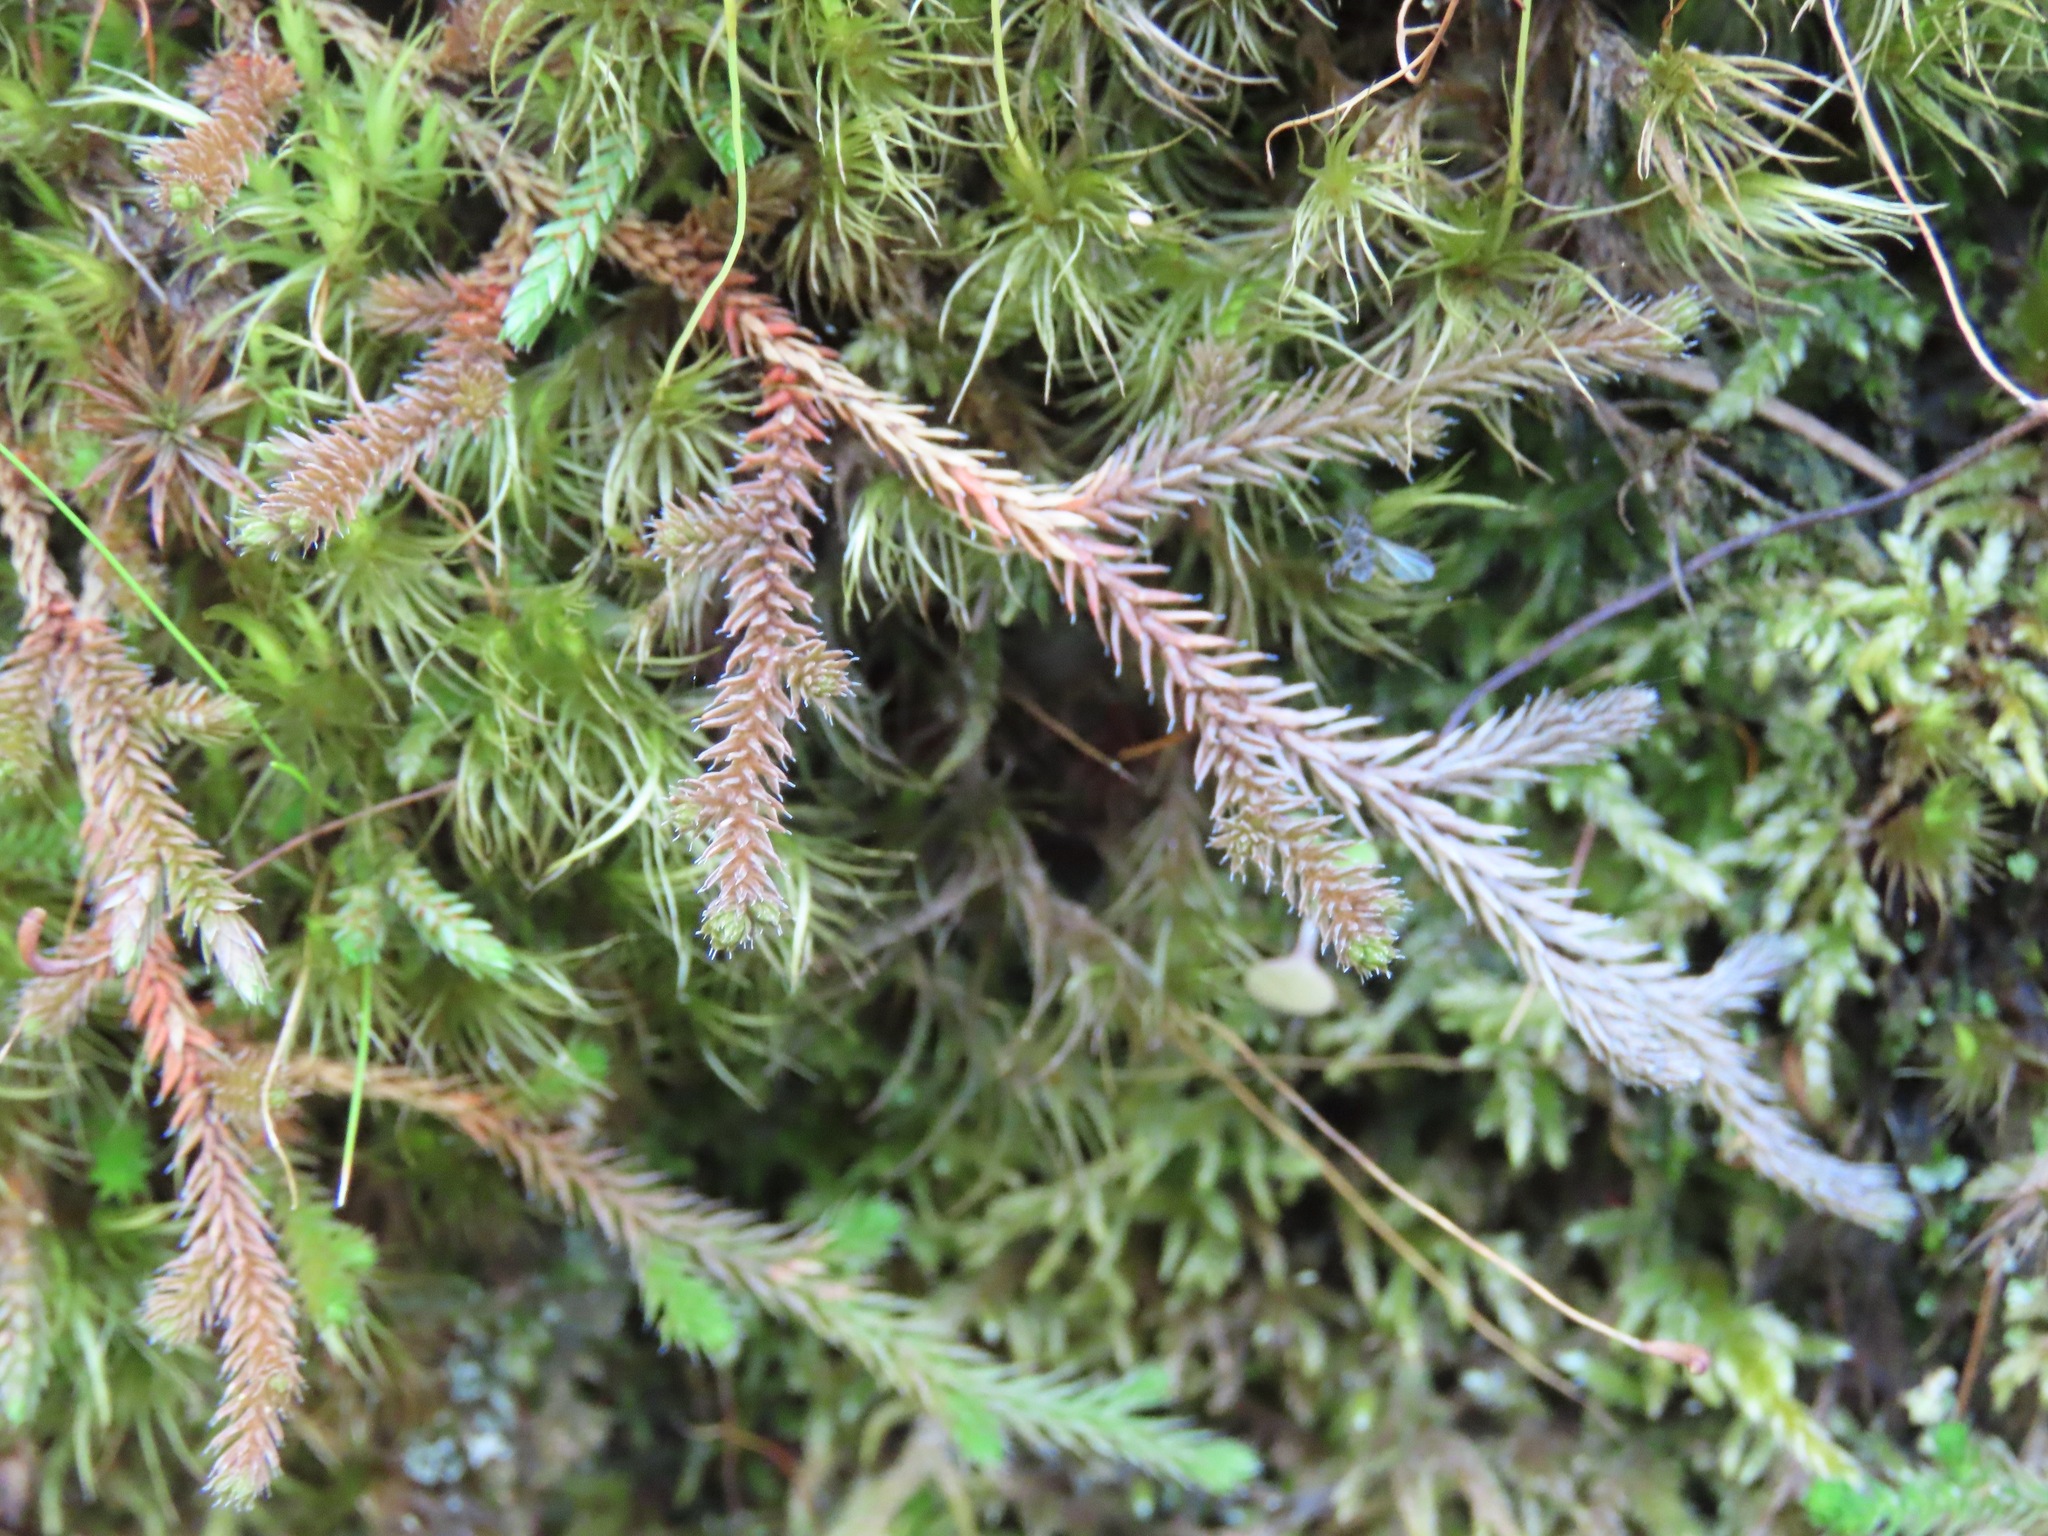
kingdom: Plantae
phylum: Tracheophyta
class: Lycopodiopsida
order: Selaginellales
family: Selaginellaceae
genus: Selaginella
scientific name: Selaginella wallacei
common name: Wallace's selaginella
